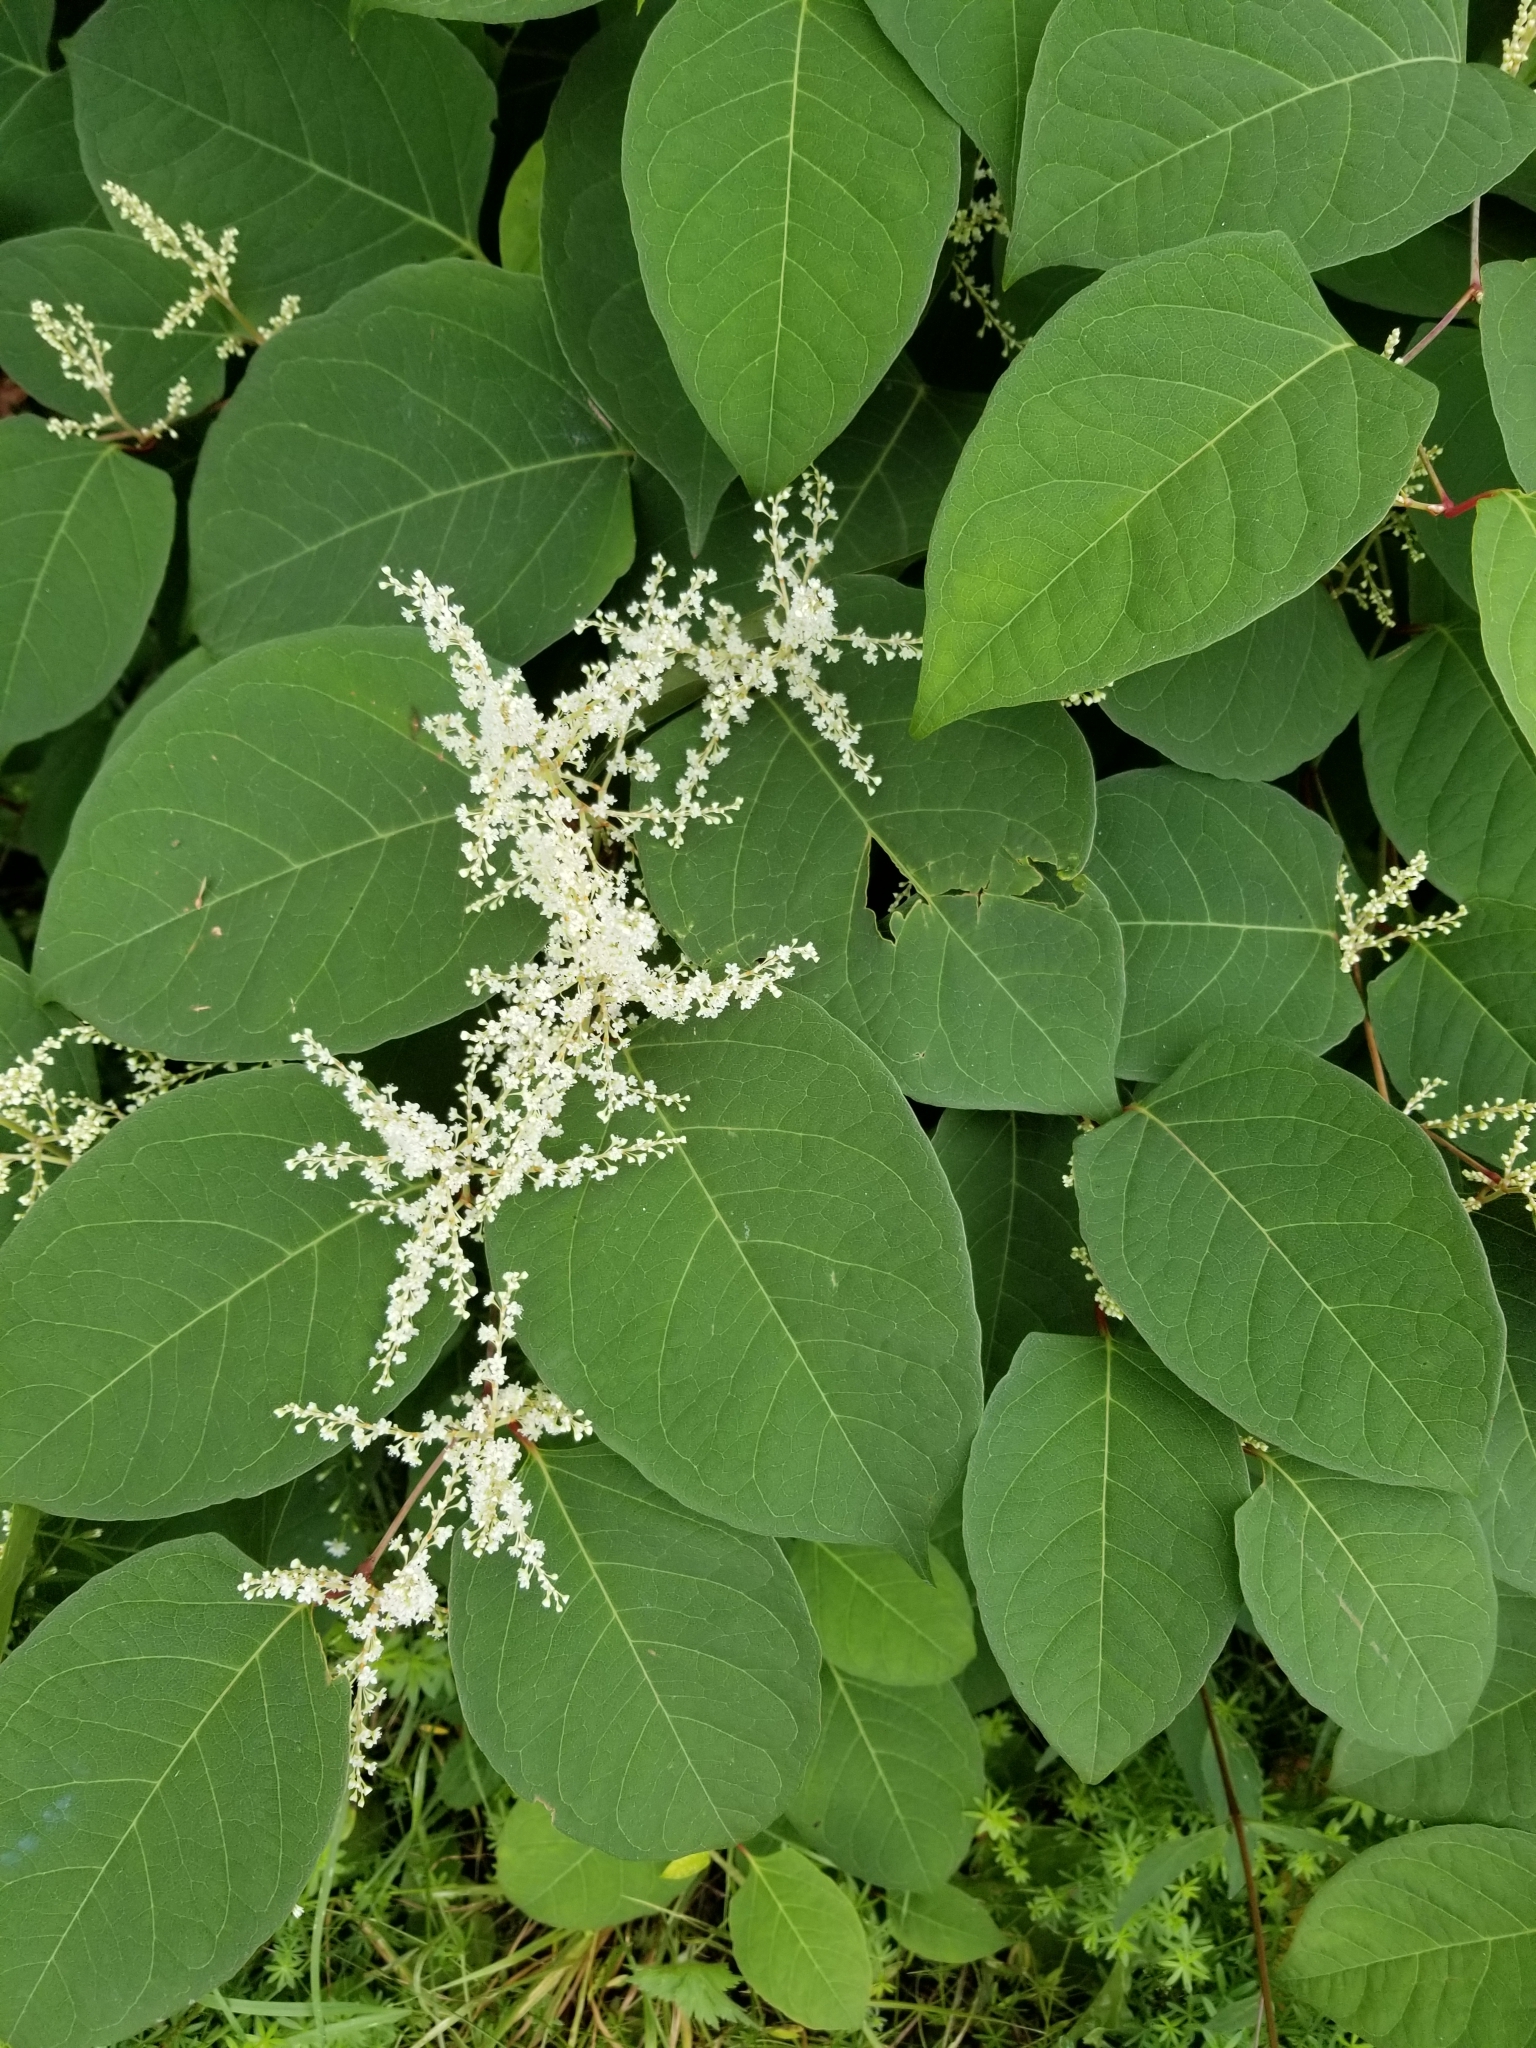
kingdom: Plantae
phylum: Tracheophyta
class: Magnoliopsida
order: Caryophyllales
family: Polygonaceae
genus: Reynoutria
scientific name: Reynoutria japonica
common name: Japanese knotweed
